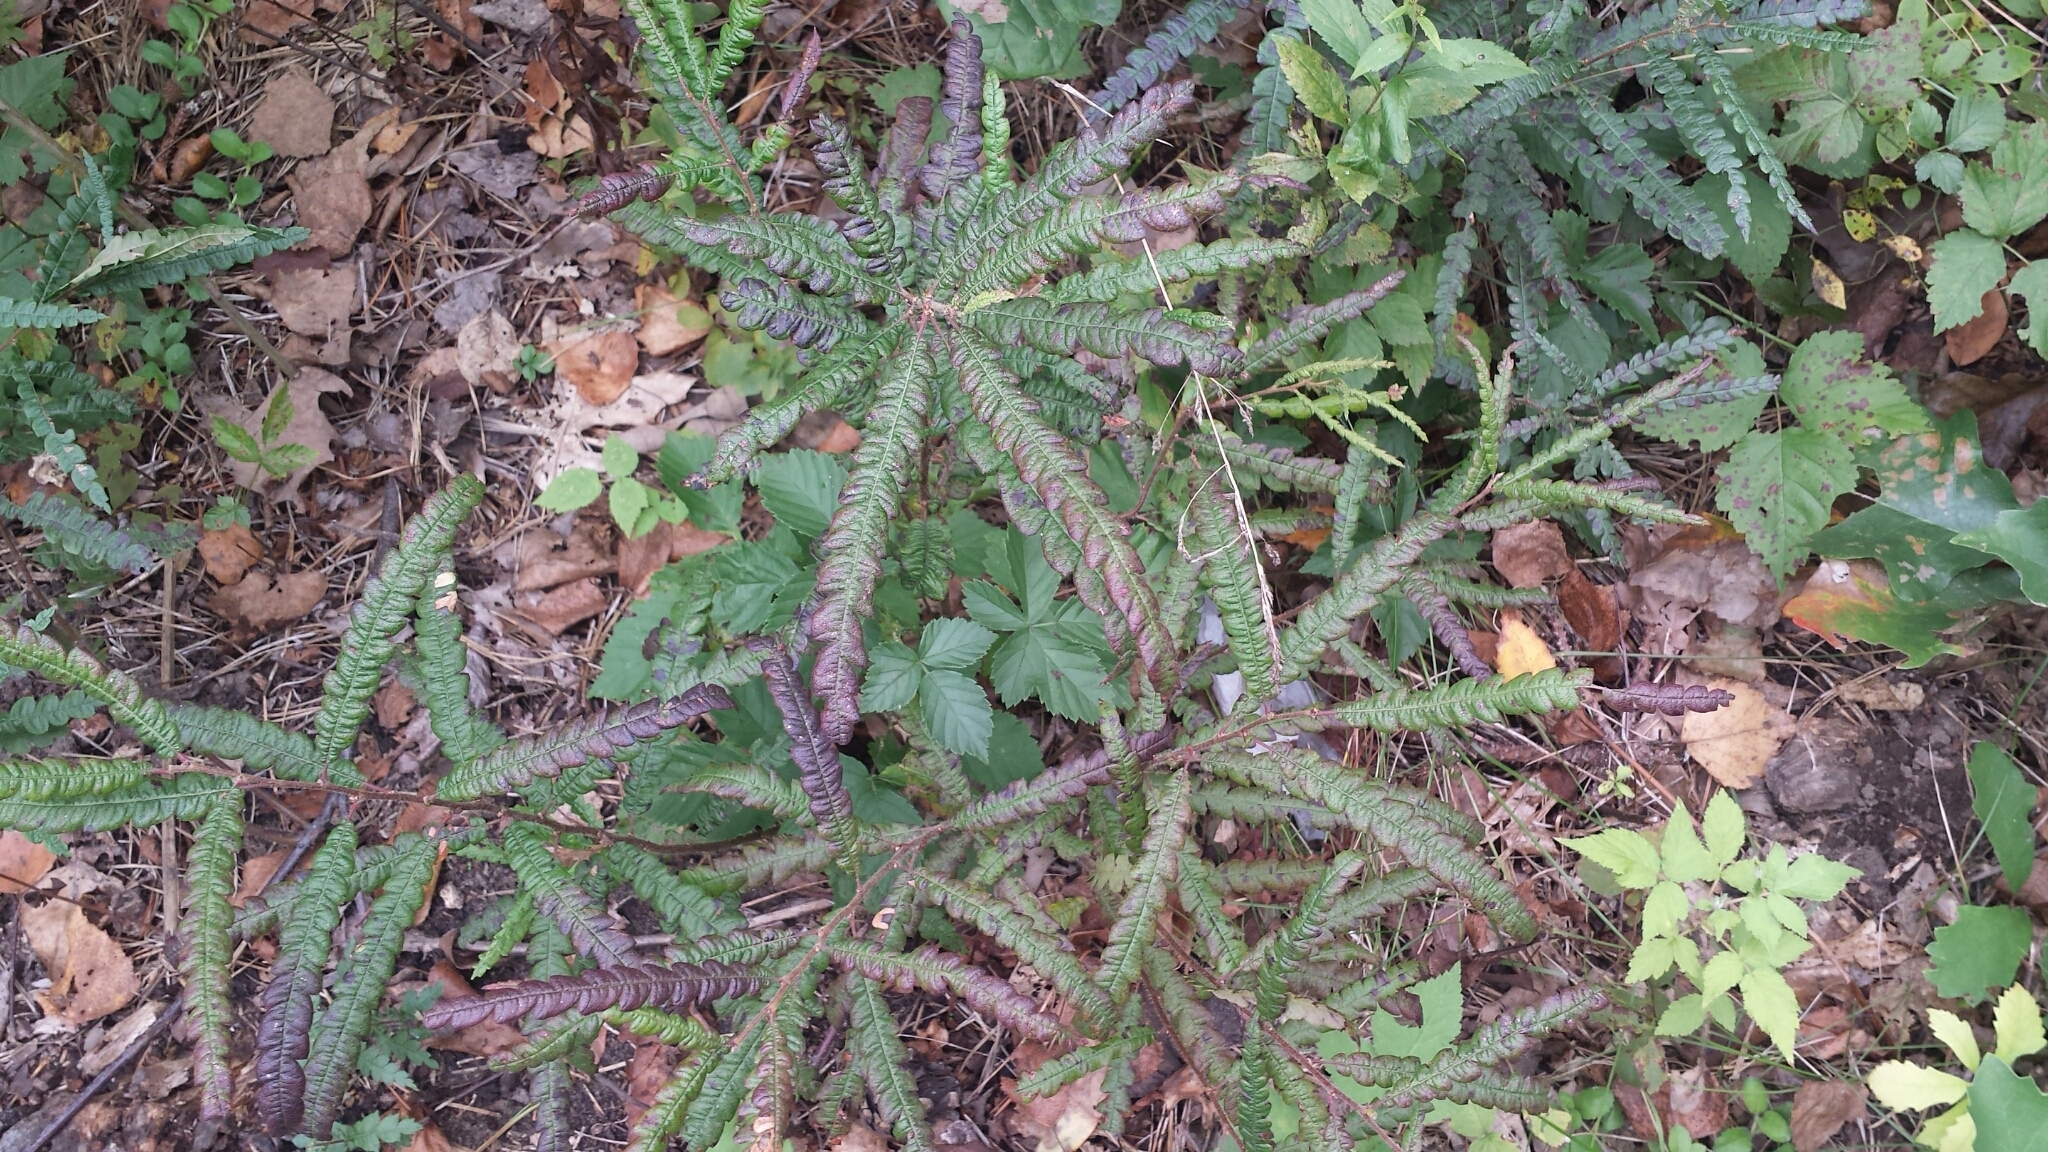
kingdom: Plantae
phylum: Tracheophyta
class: Magnoliopsida
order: Fagales
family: Myricaceae
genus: Comptonia
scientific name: Comptonia peregrina
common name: Sweet-fern
